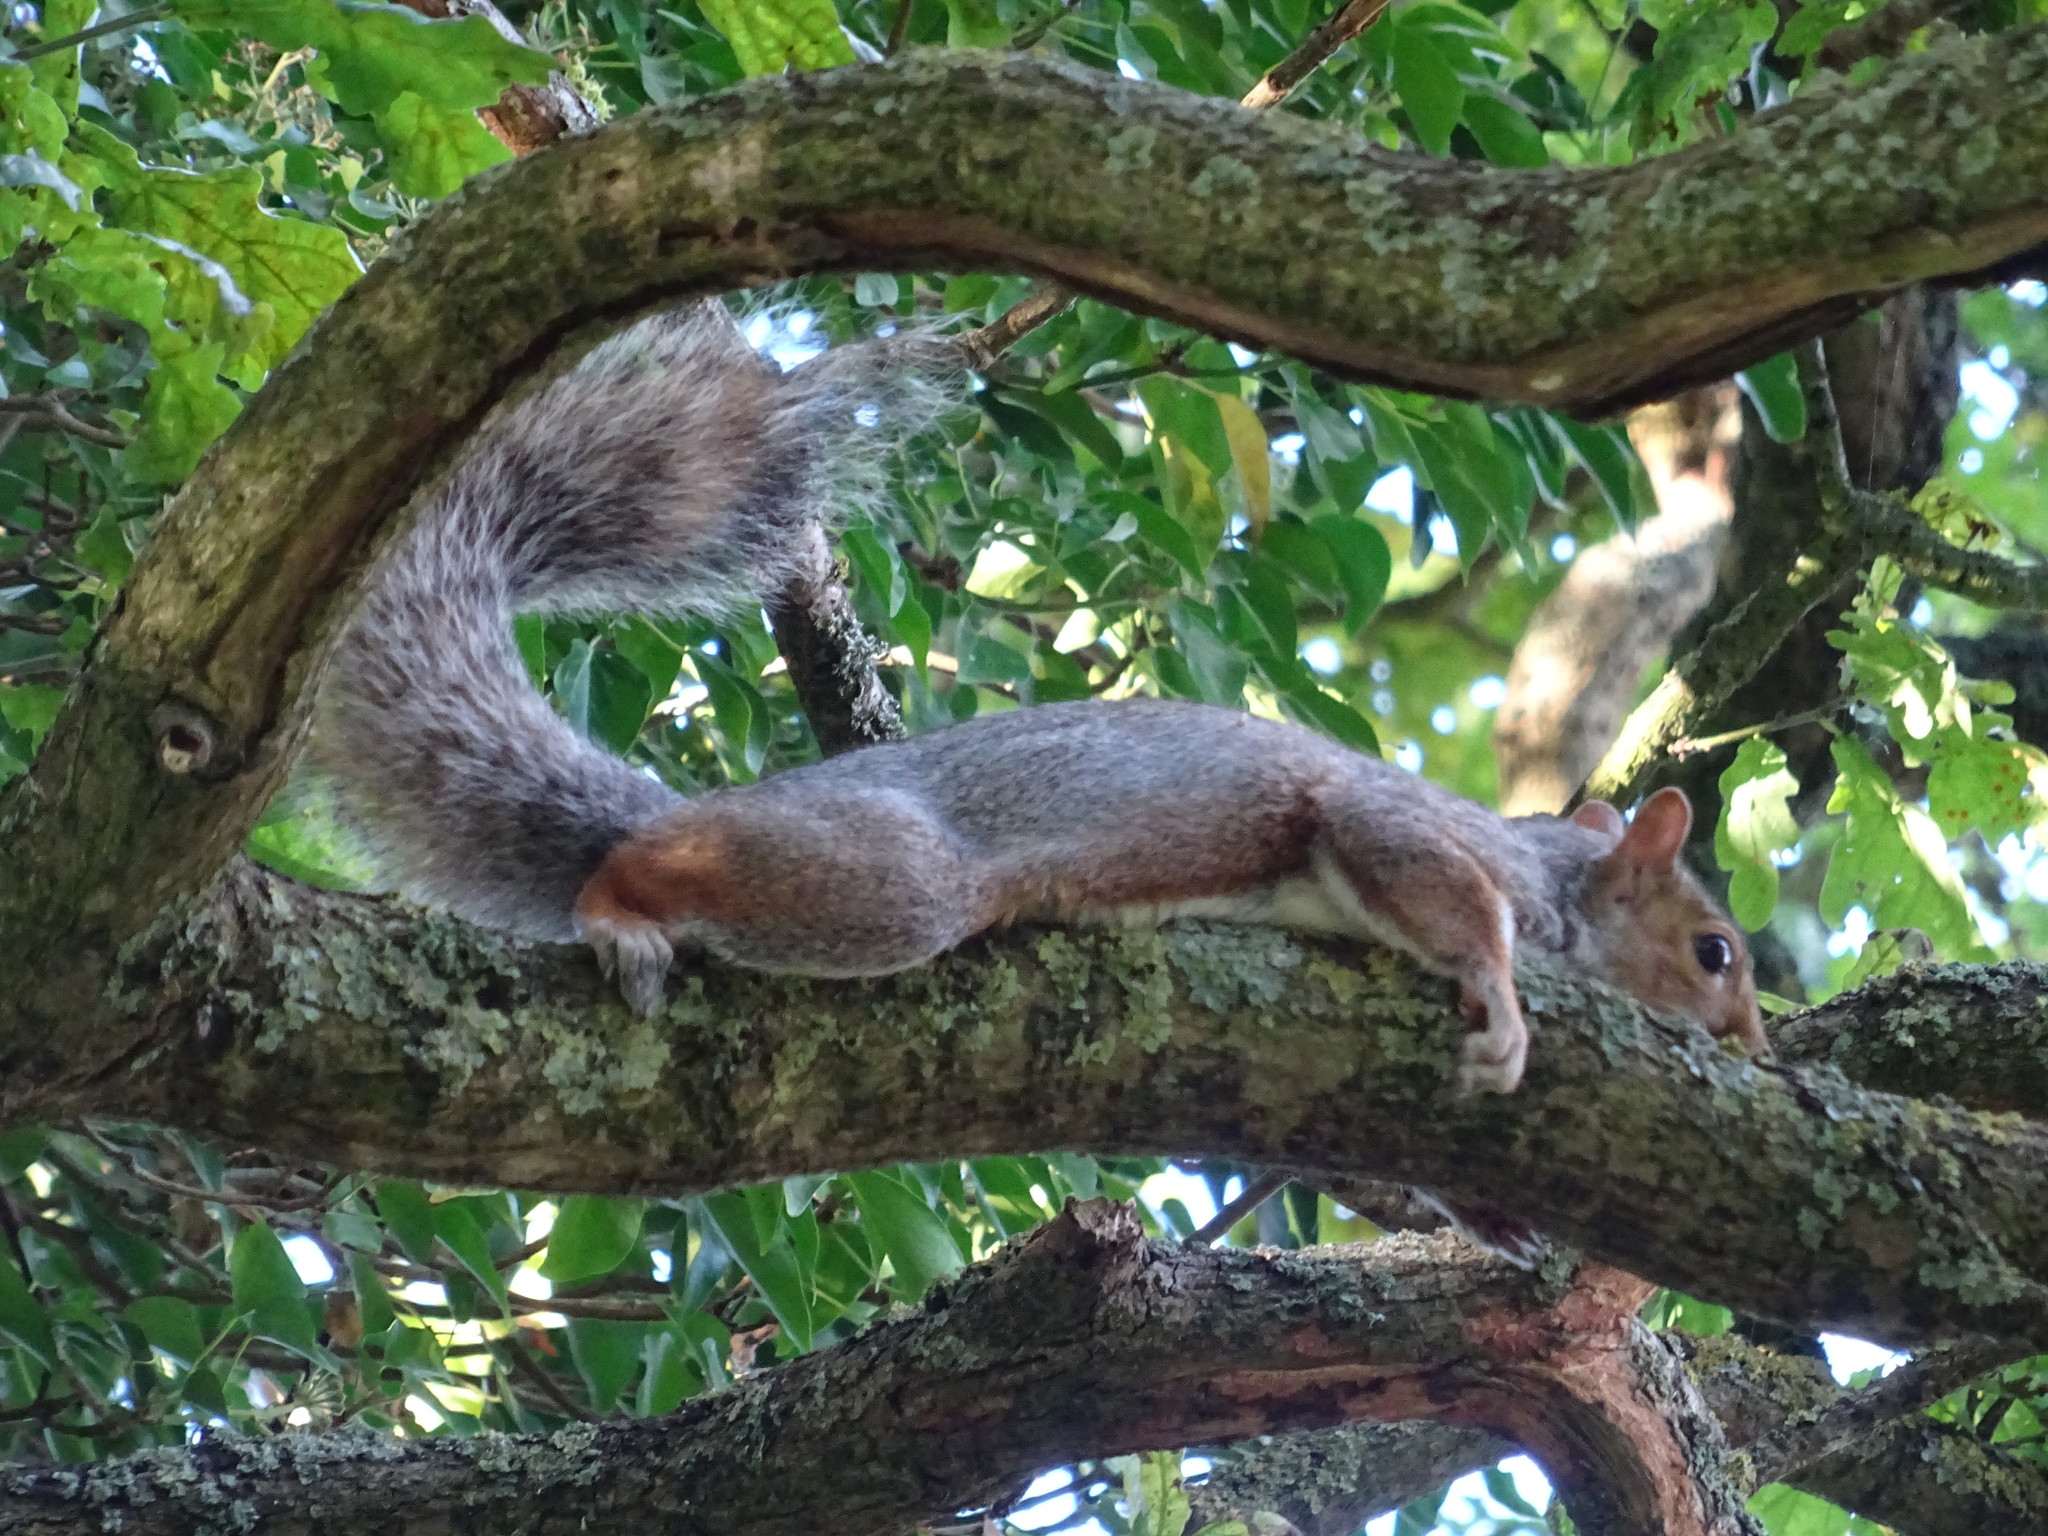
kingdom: Animalia
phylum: Chordata
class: Mammalia
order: Rodentia
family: Sciuridae
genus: Sciurus
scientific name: Sciurus carolinensis
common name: Eastern gray squirrel
